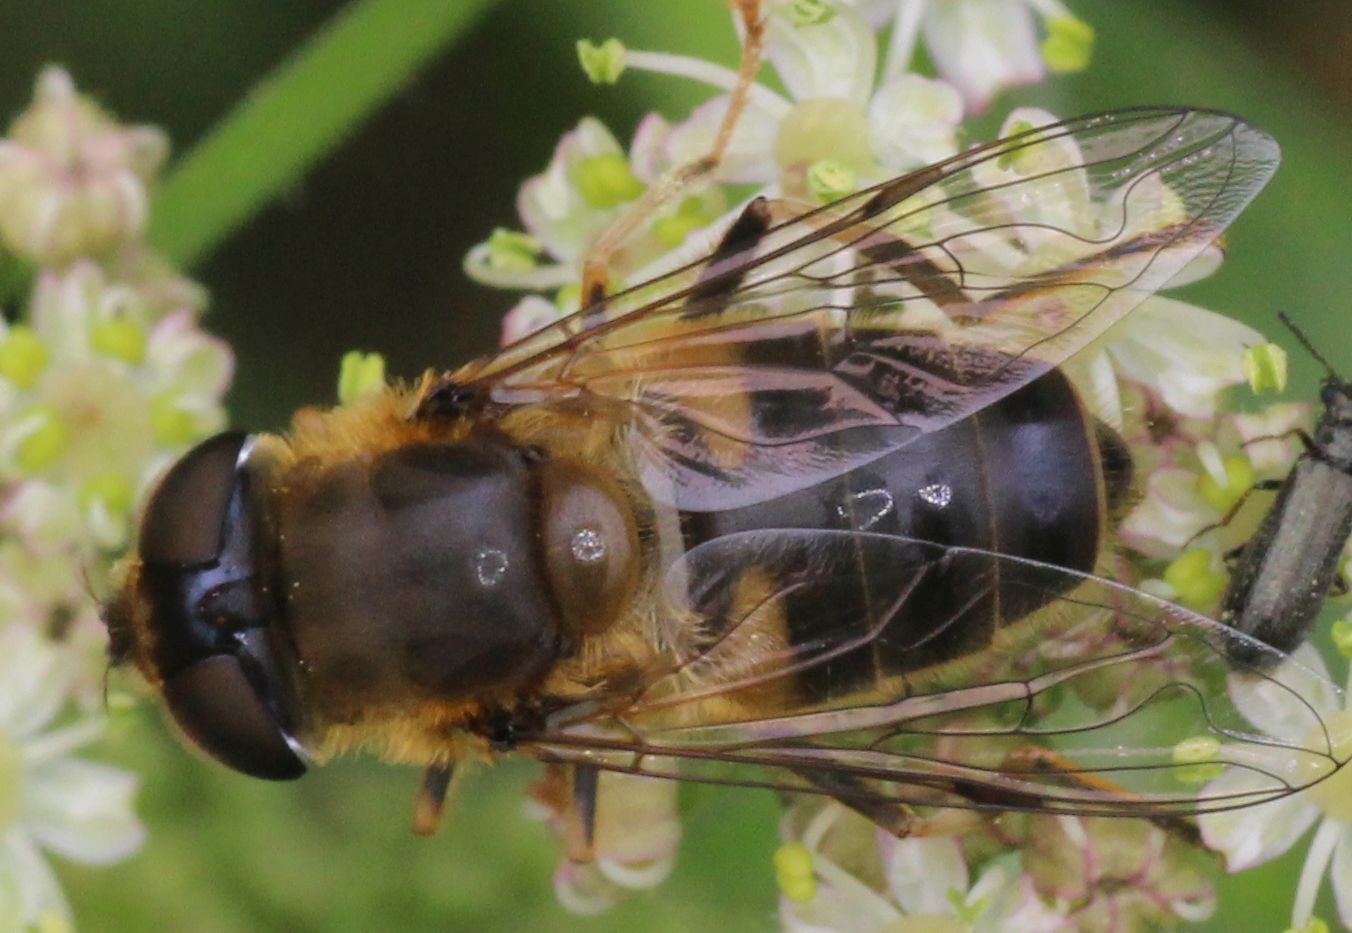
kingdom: Animalia
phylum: Arthropoda
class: Insecta
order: Diptera
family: Syrphidae
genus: Eristalis
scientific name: Eristalis pertinax
